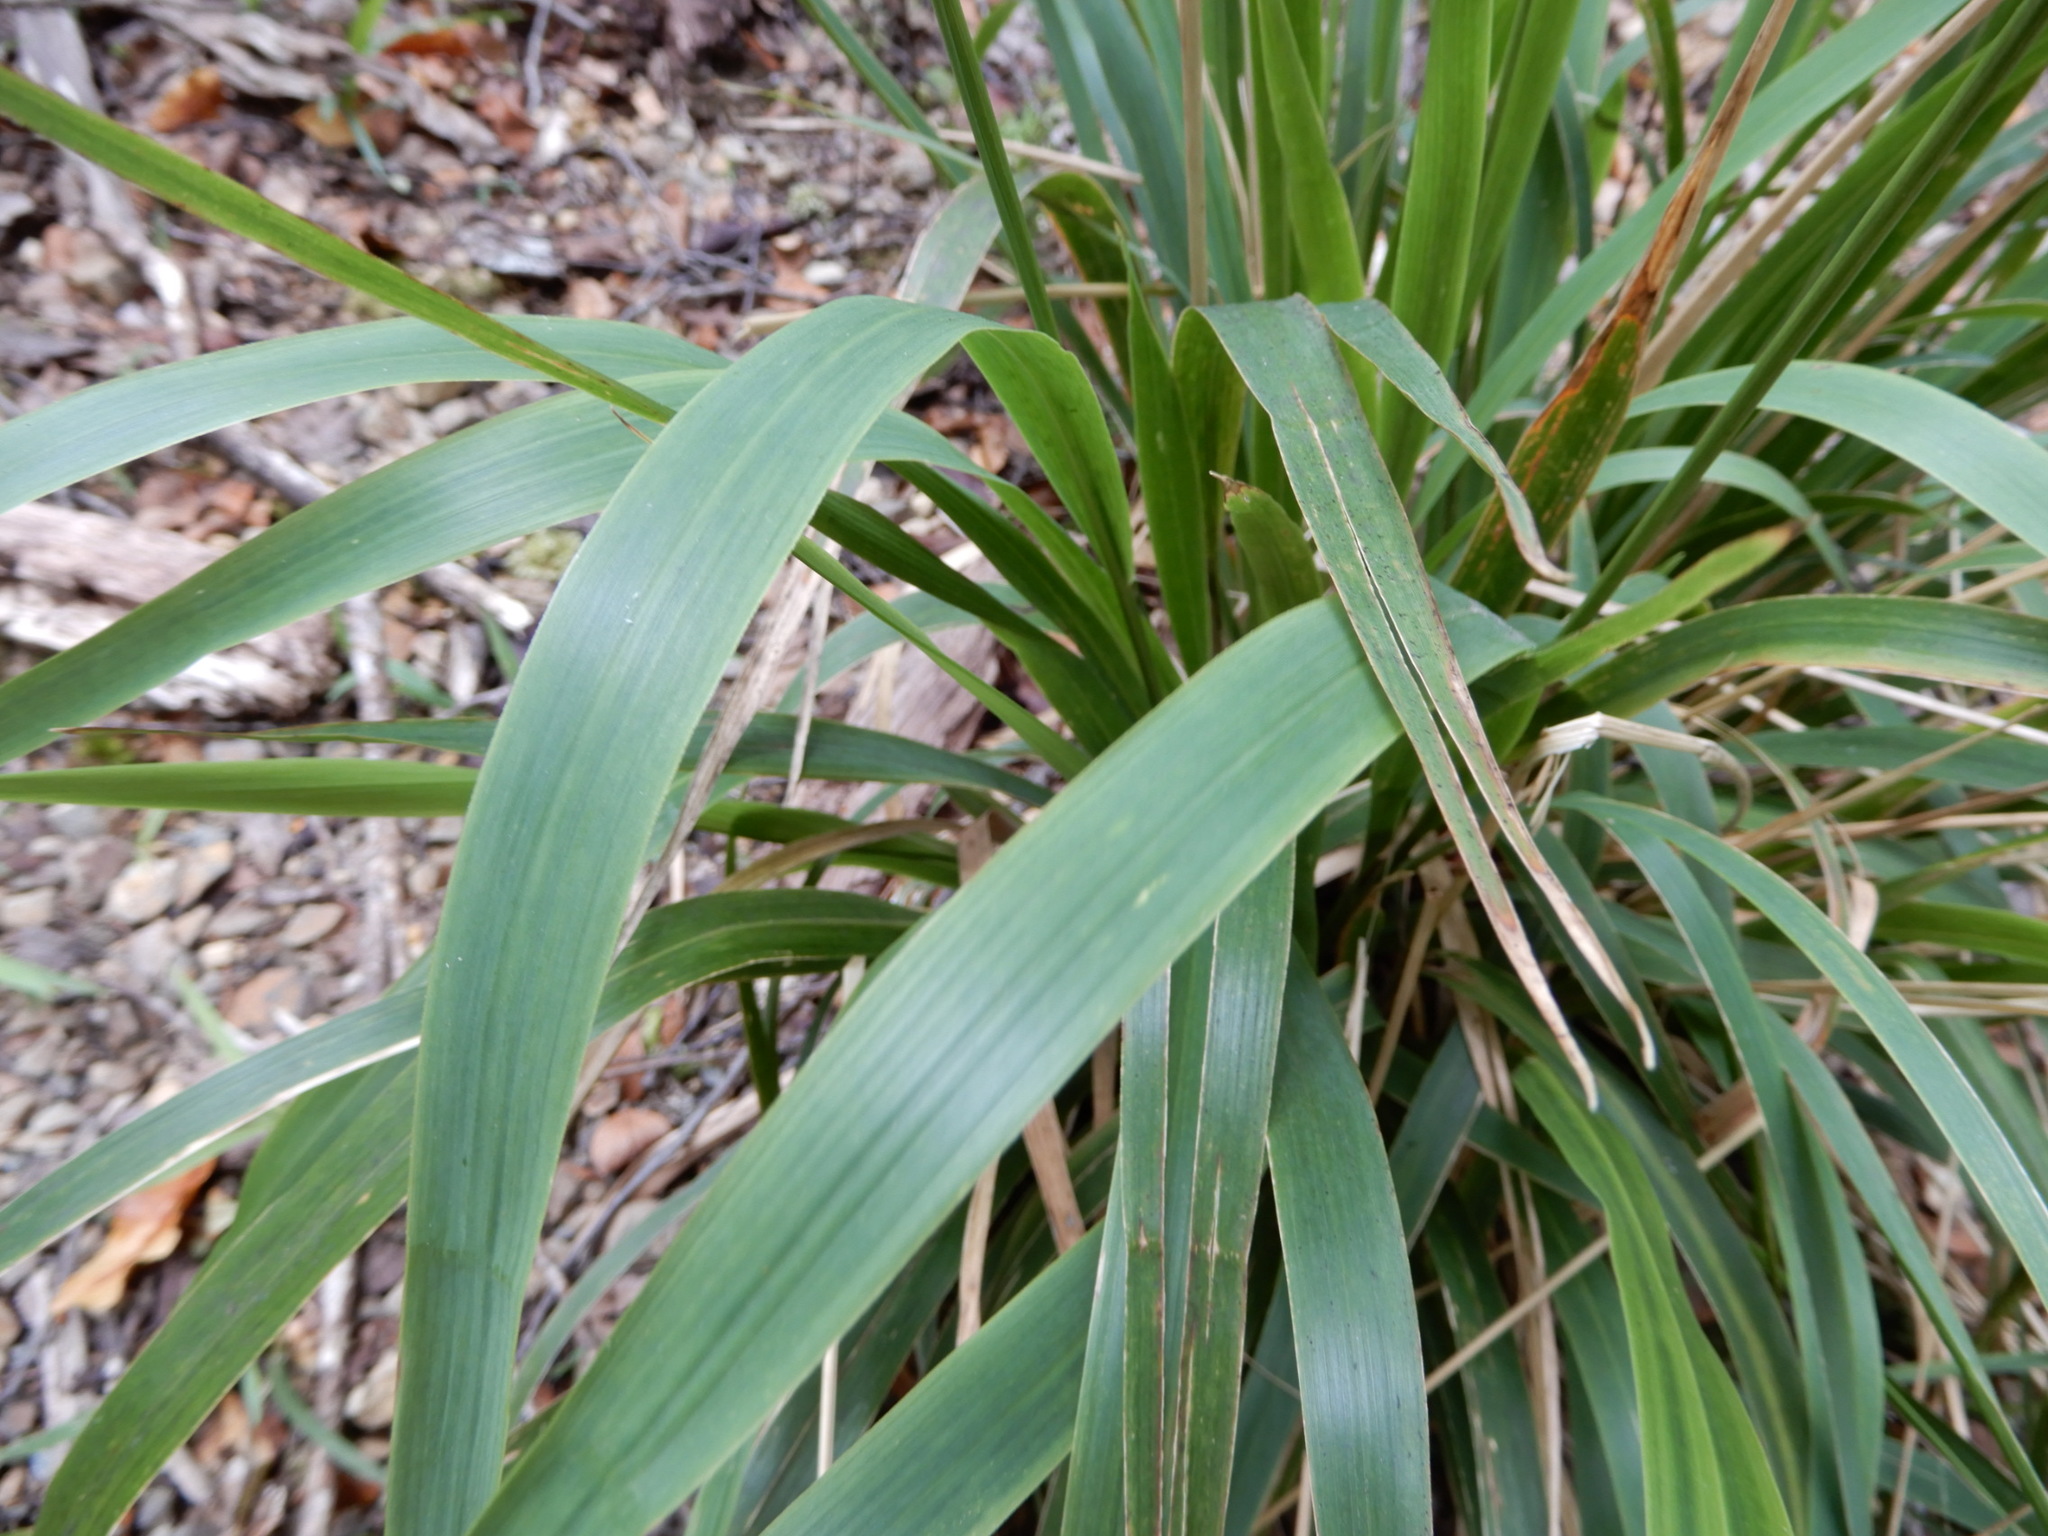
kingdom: Plantae
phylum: Tracheophyta
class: Liliopsida
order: Poales
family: Poaceae
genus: Ehrharta
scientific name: Ehrharta diplax
